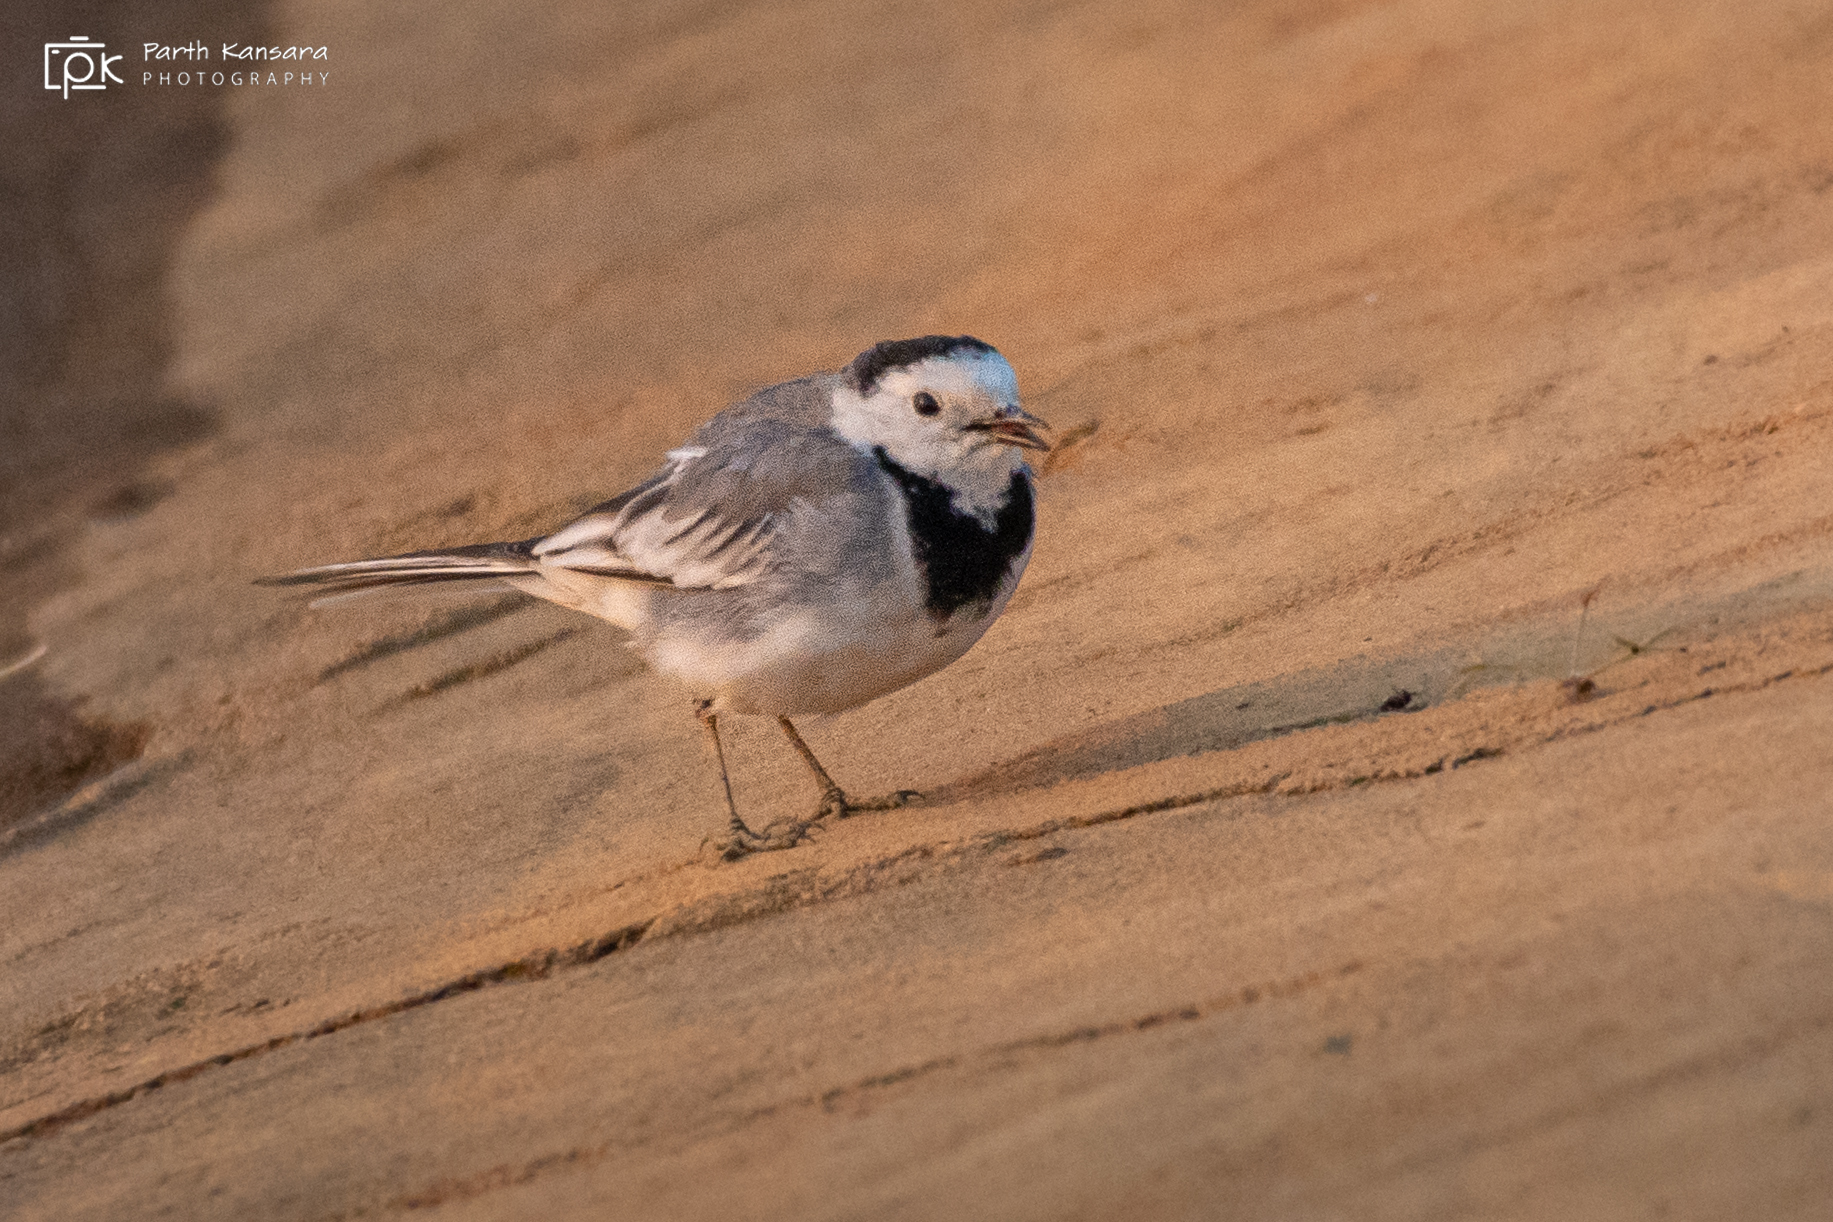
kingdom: Animalia
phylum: Chordata
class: Aves
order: Passeriformes
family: Motacillidae
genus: Motacilla
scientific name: Motacilla alba
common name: White wagtail
